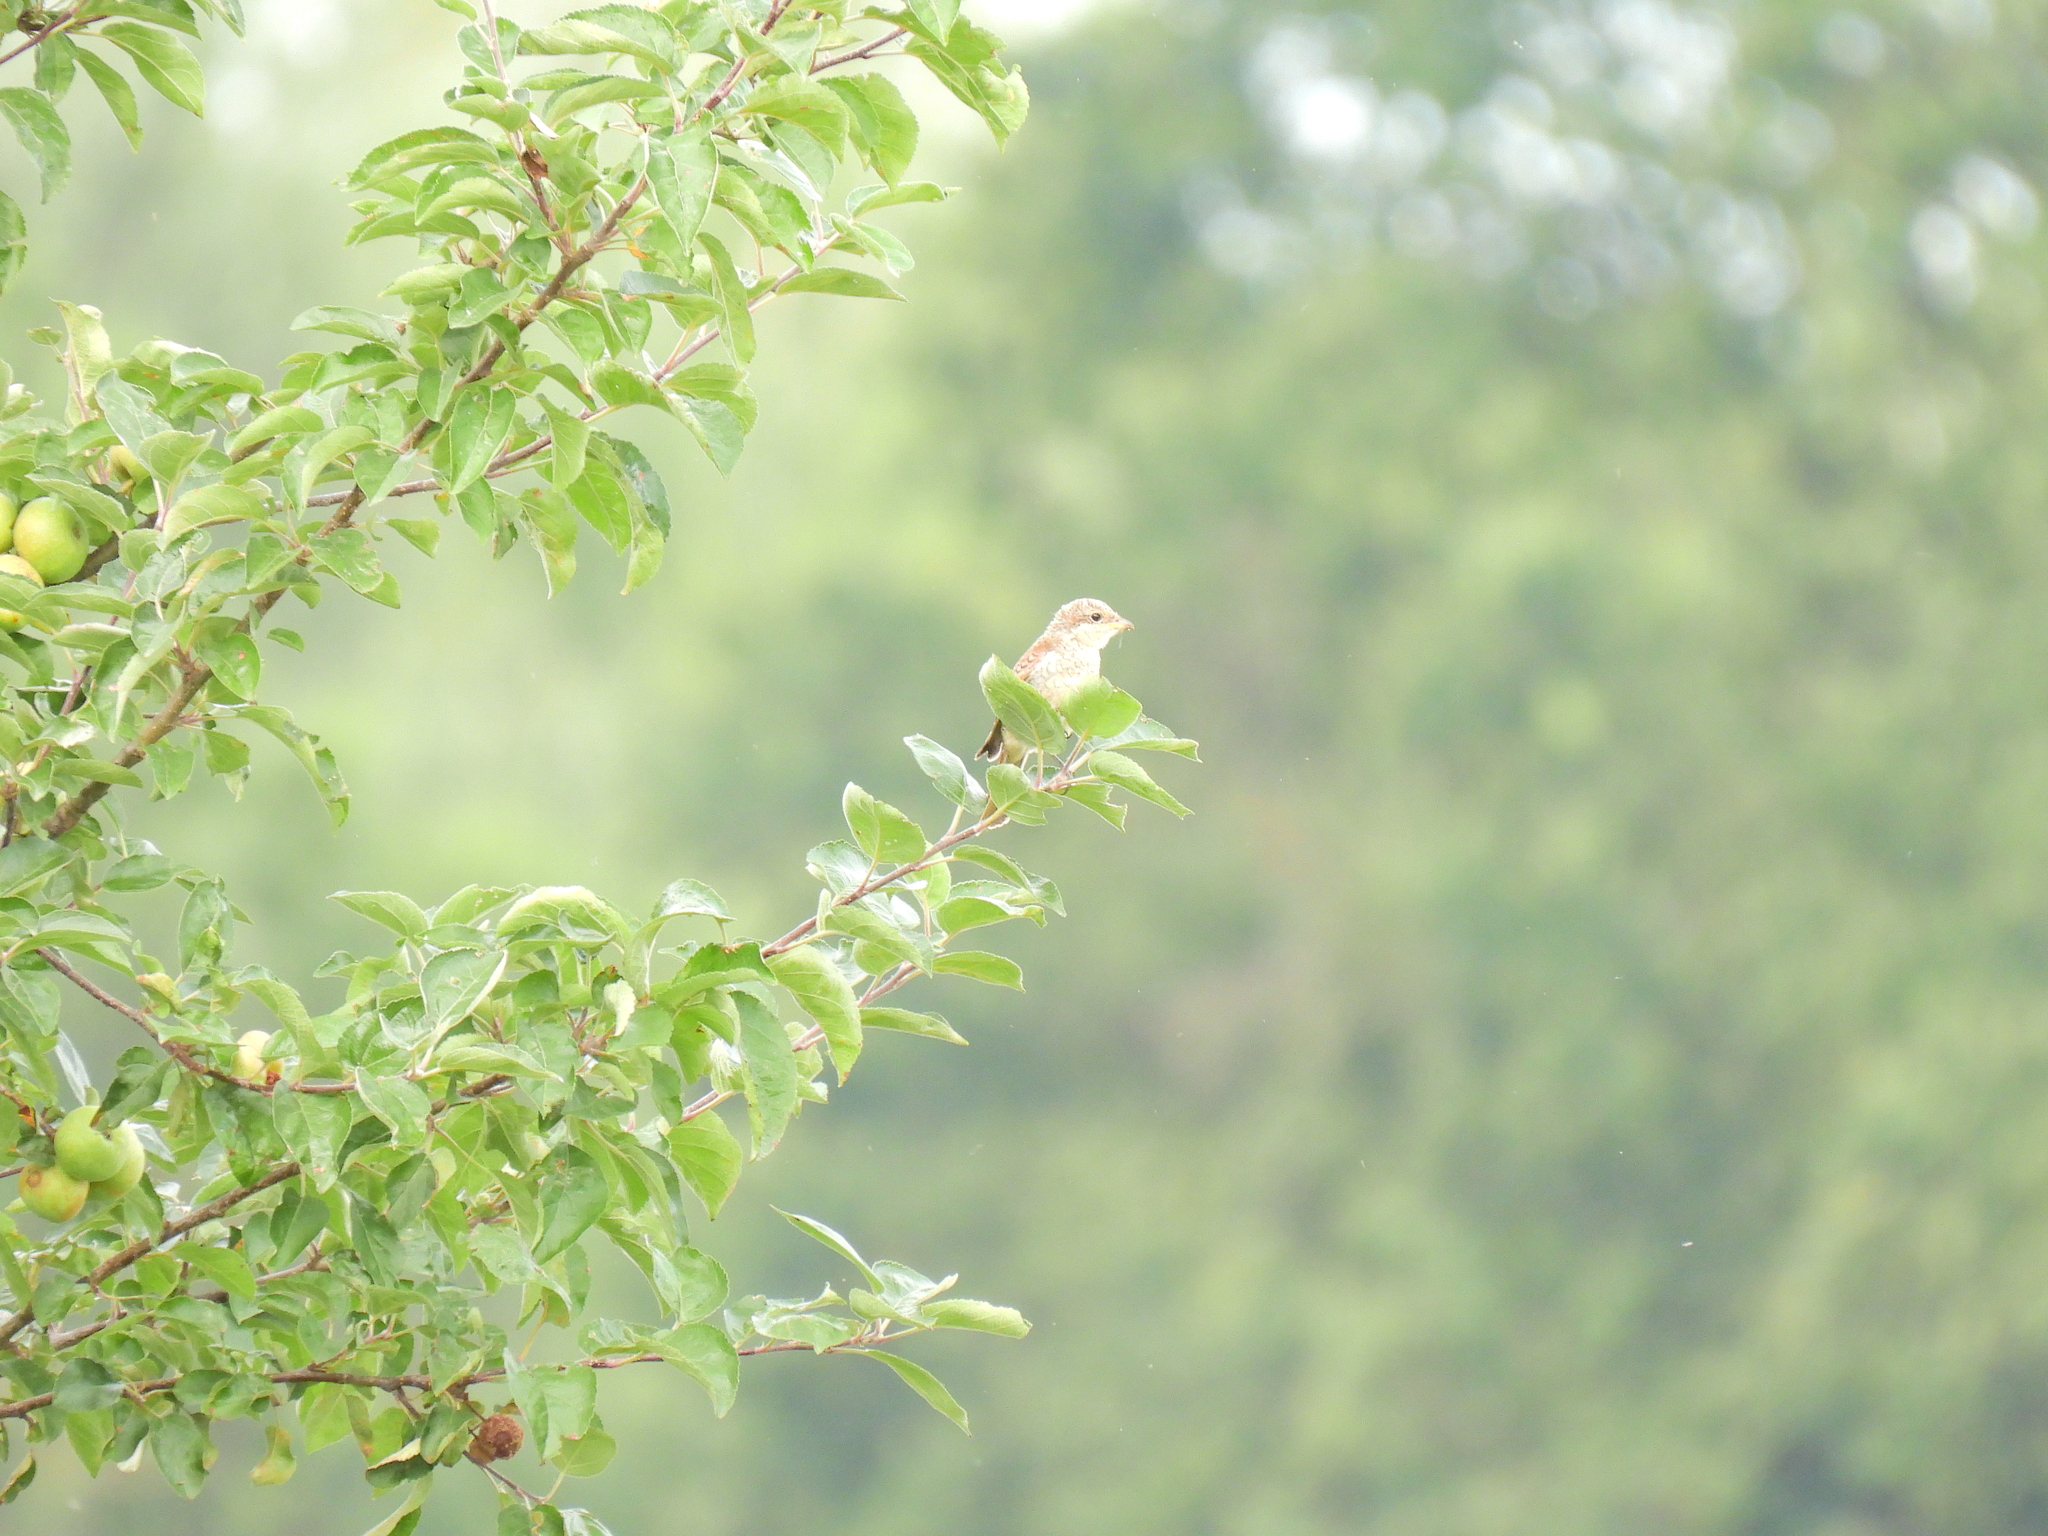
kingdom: Animalia
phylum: Chordata
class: Aves
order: Passeriformes
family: Laniidae
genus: Lanius
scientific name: Lanius collurio
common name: Red-backed shrike
